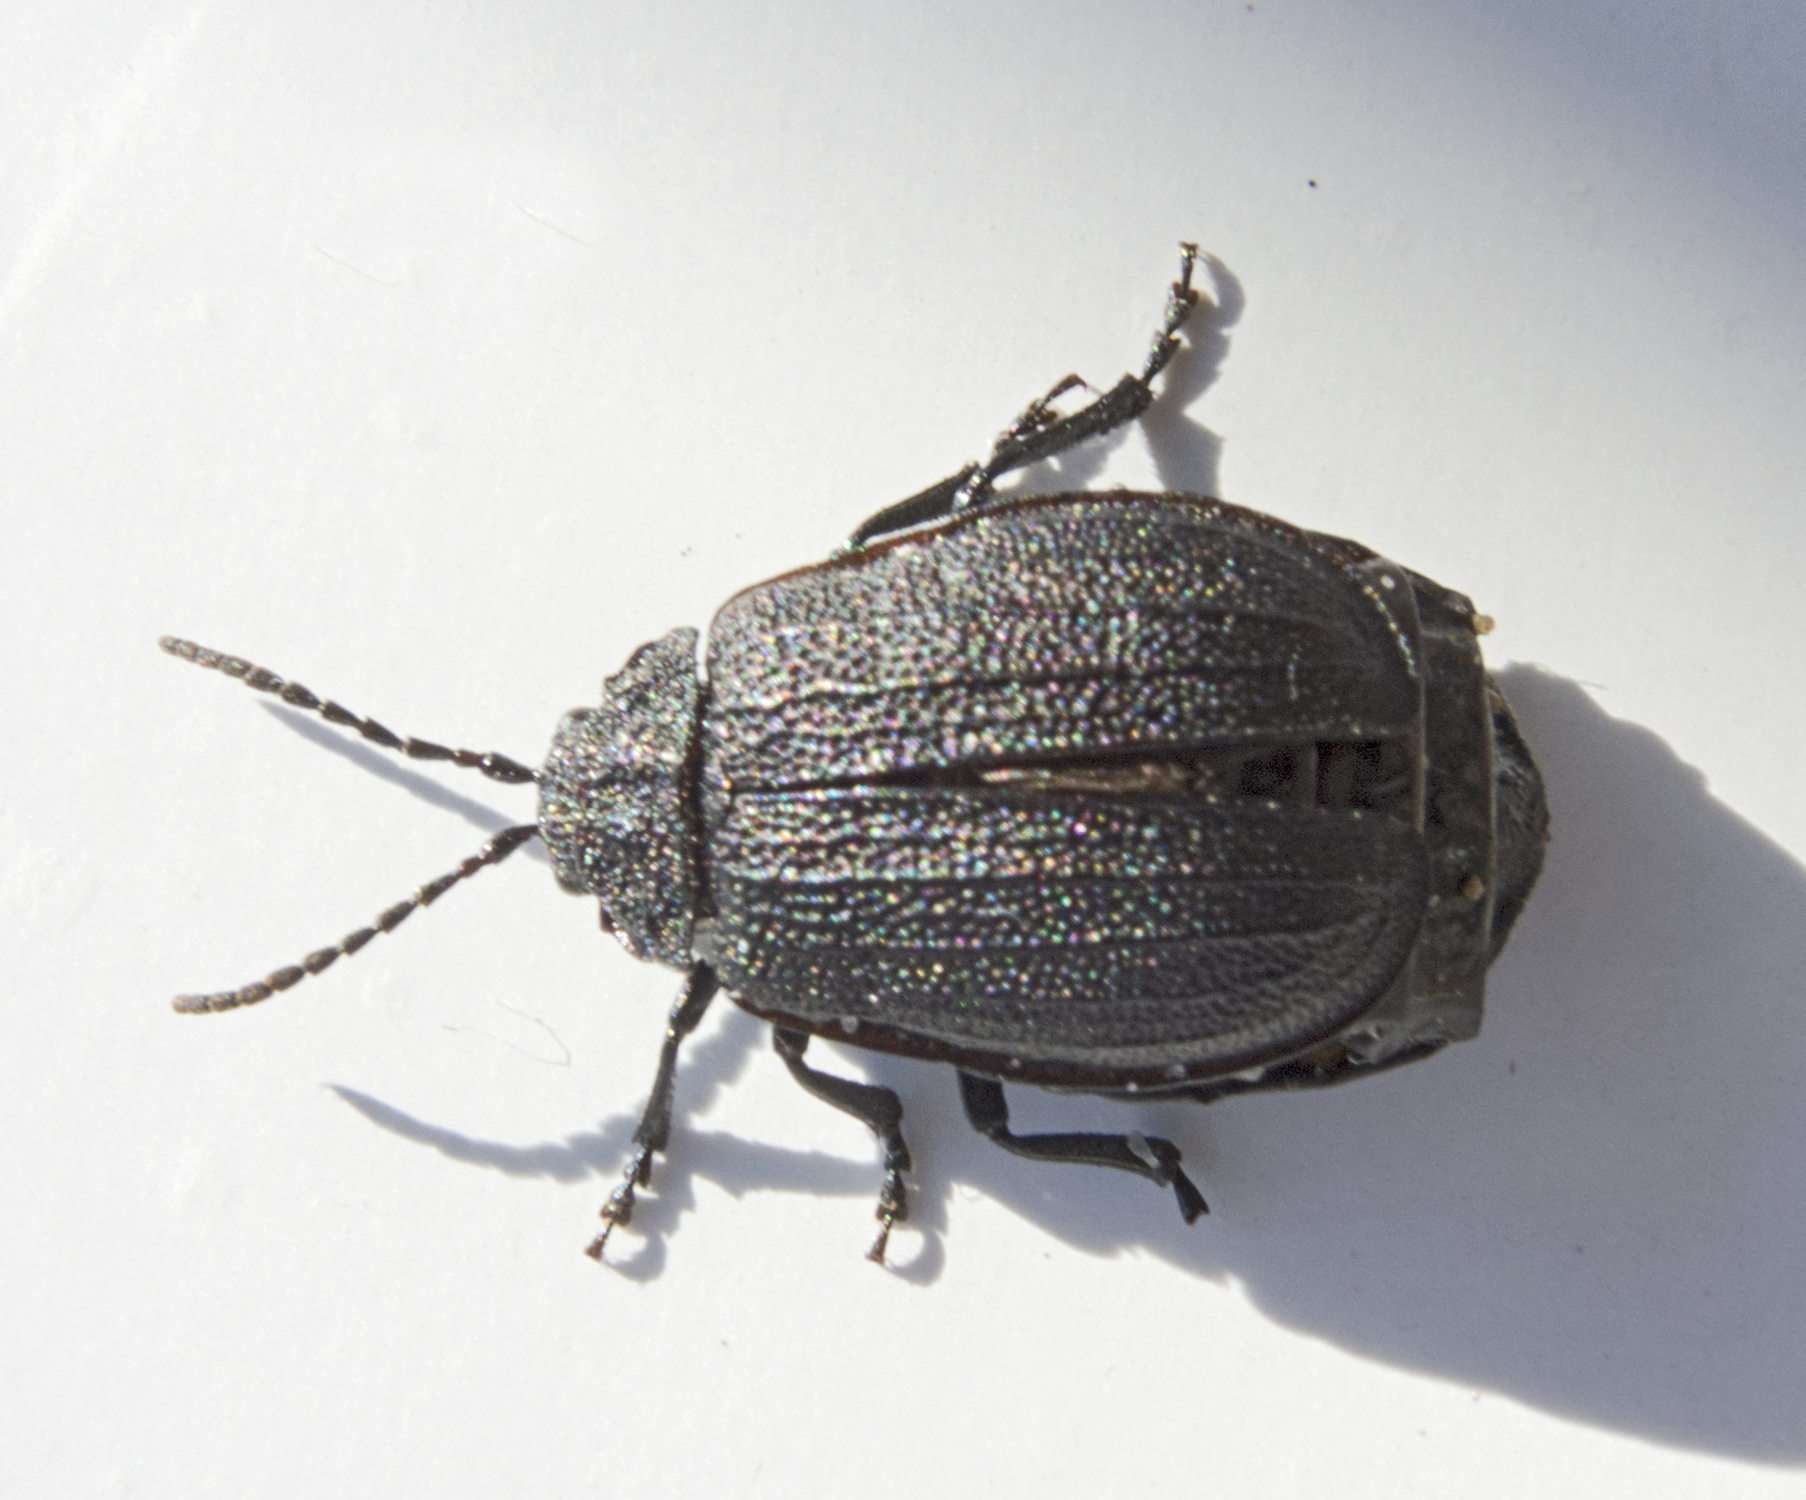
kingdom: Animalia
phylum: Arthropoda
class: Insecta
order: Coleoptera
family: Chrysomelidae
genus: Galeruca
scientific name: Galeruca tanaceti
